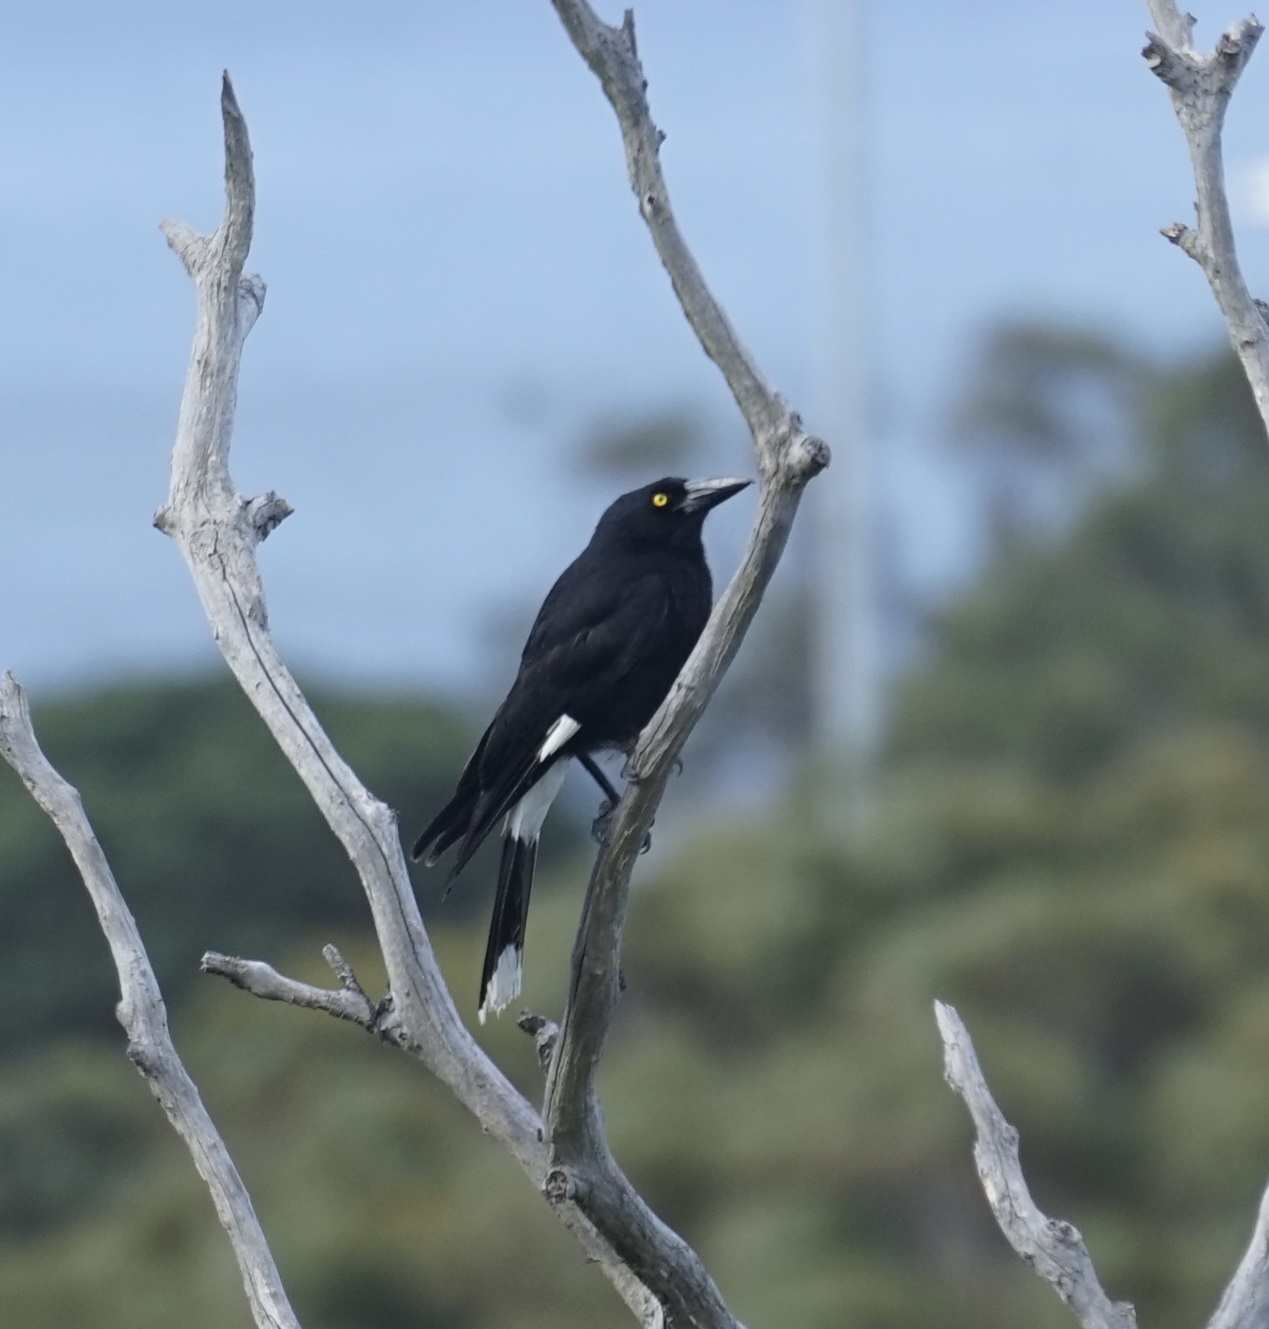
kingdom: Animalia
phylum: Chordata
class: Aves
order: Passeriformes
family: Cracticidae
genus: Strepera
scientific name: Strepera graculina
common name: Pied currawong
